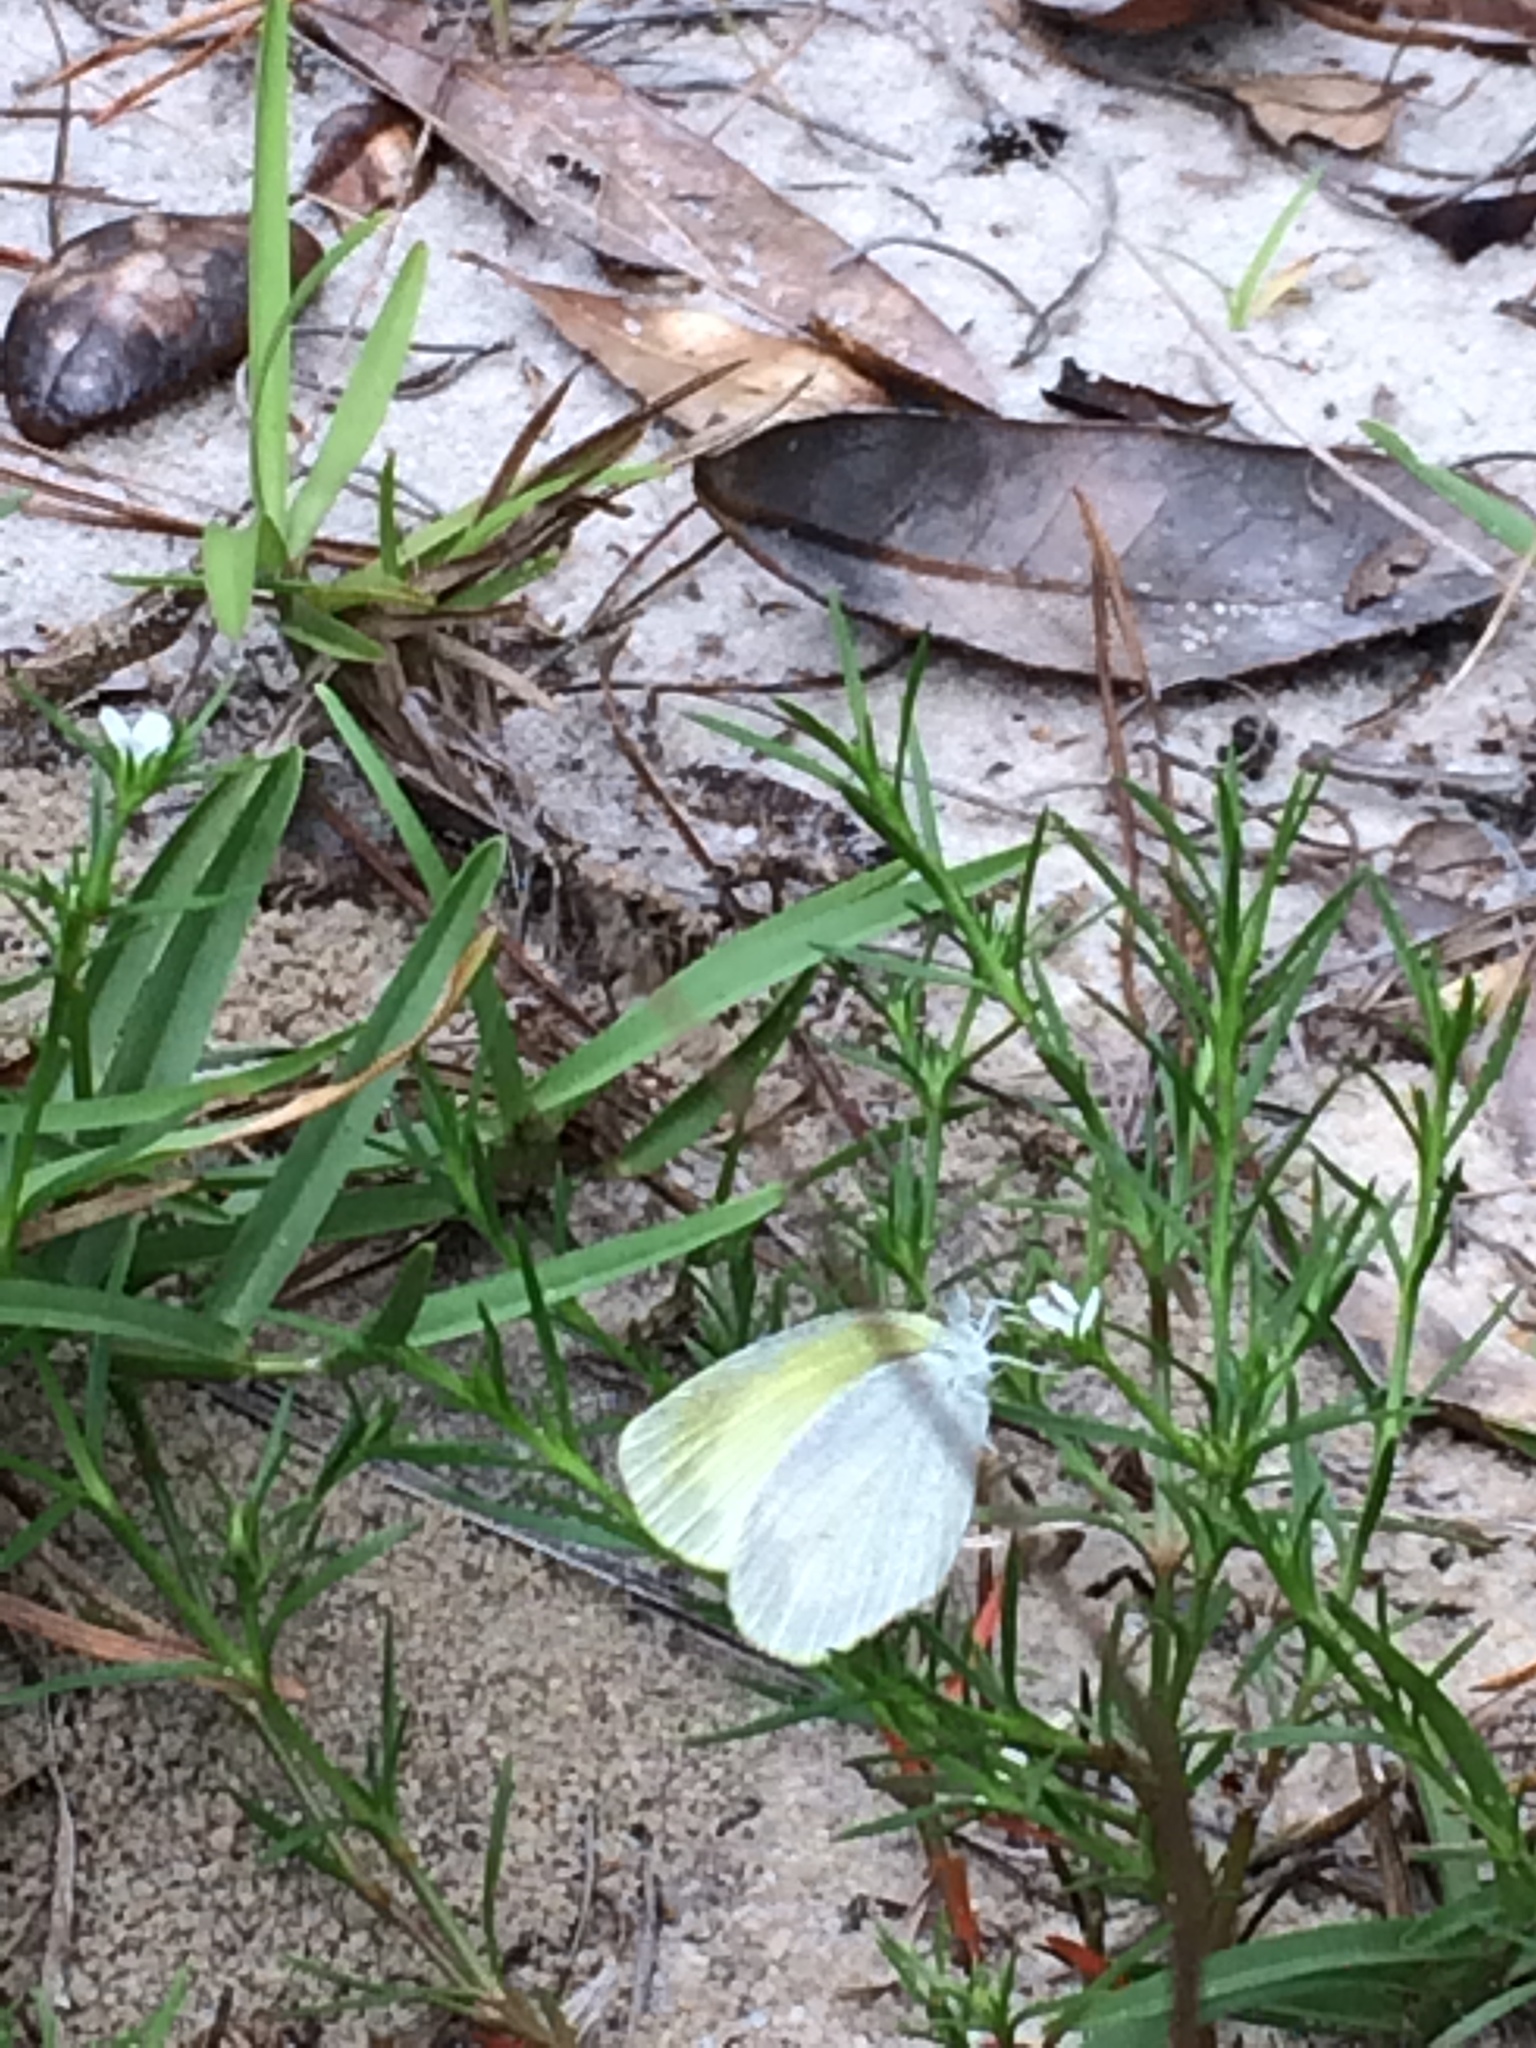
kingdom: Animalia
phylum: Arthropoda
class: Insecta
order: Lepidoptera
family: Pieridae
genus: Eurema
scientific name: Eurema daira
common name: Barred sulphur
